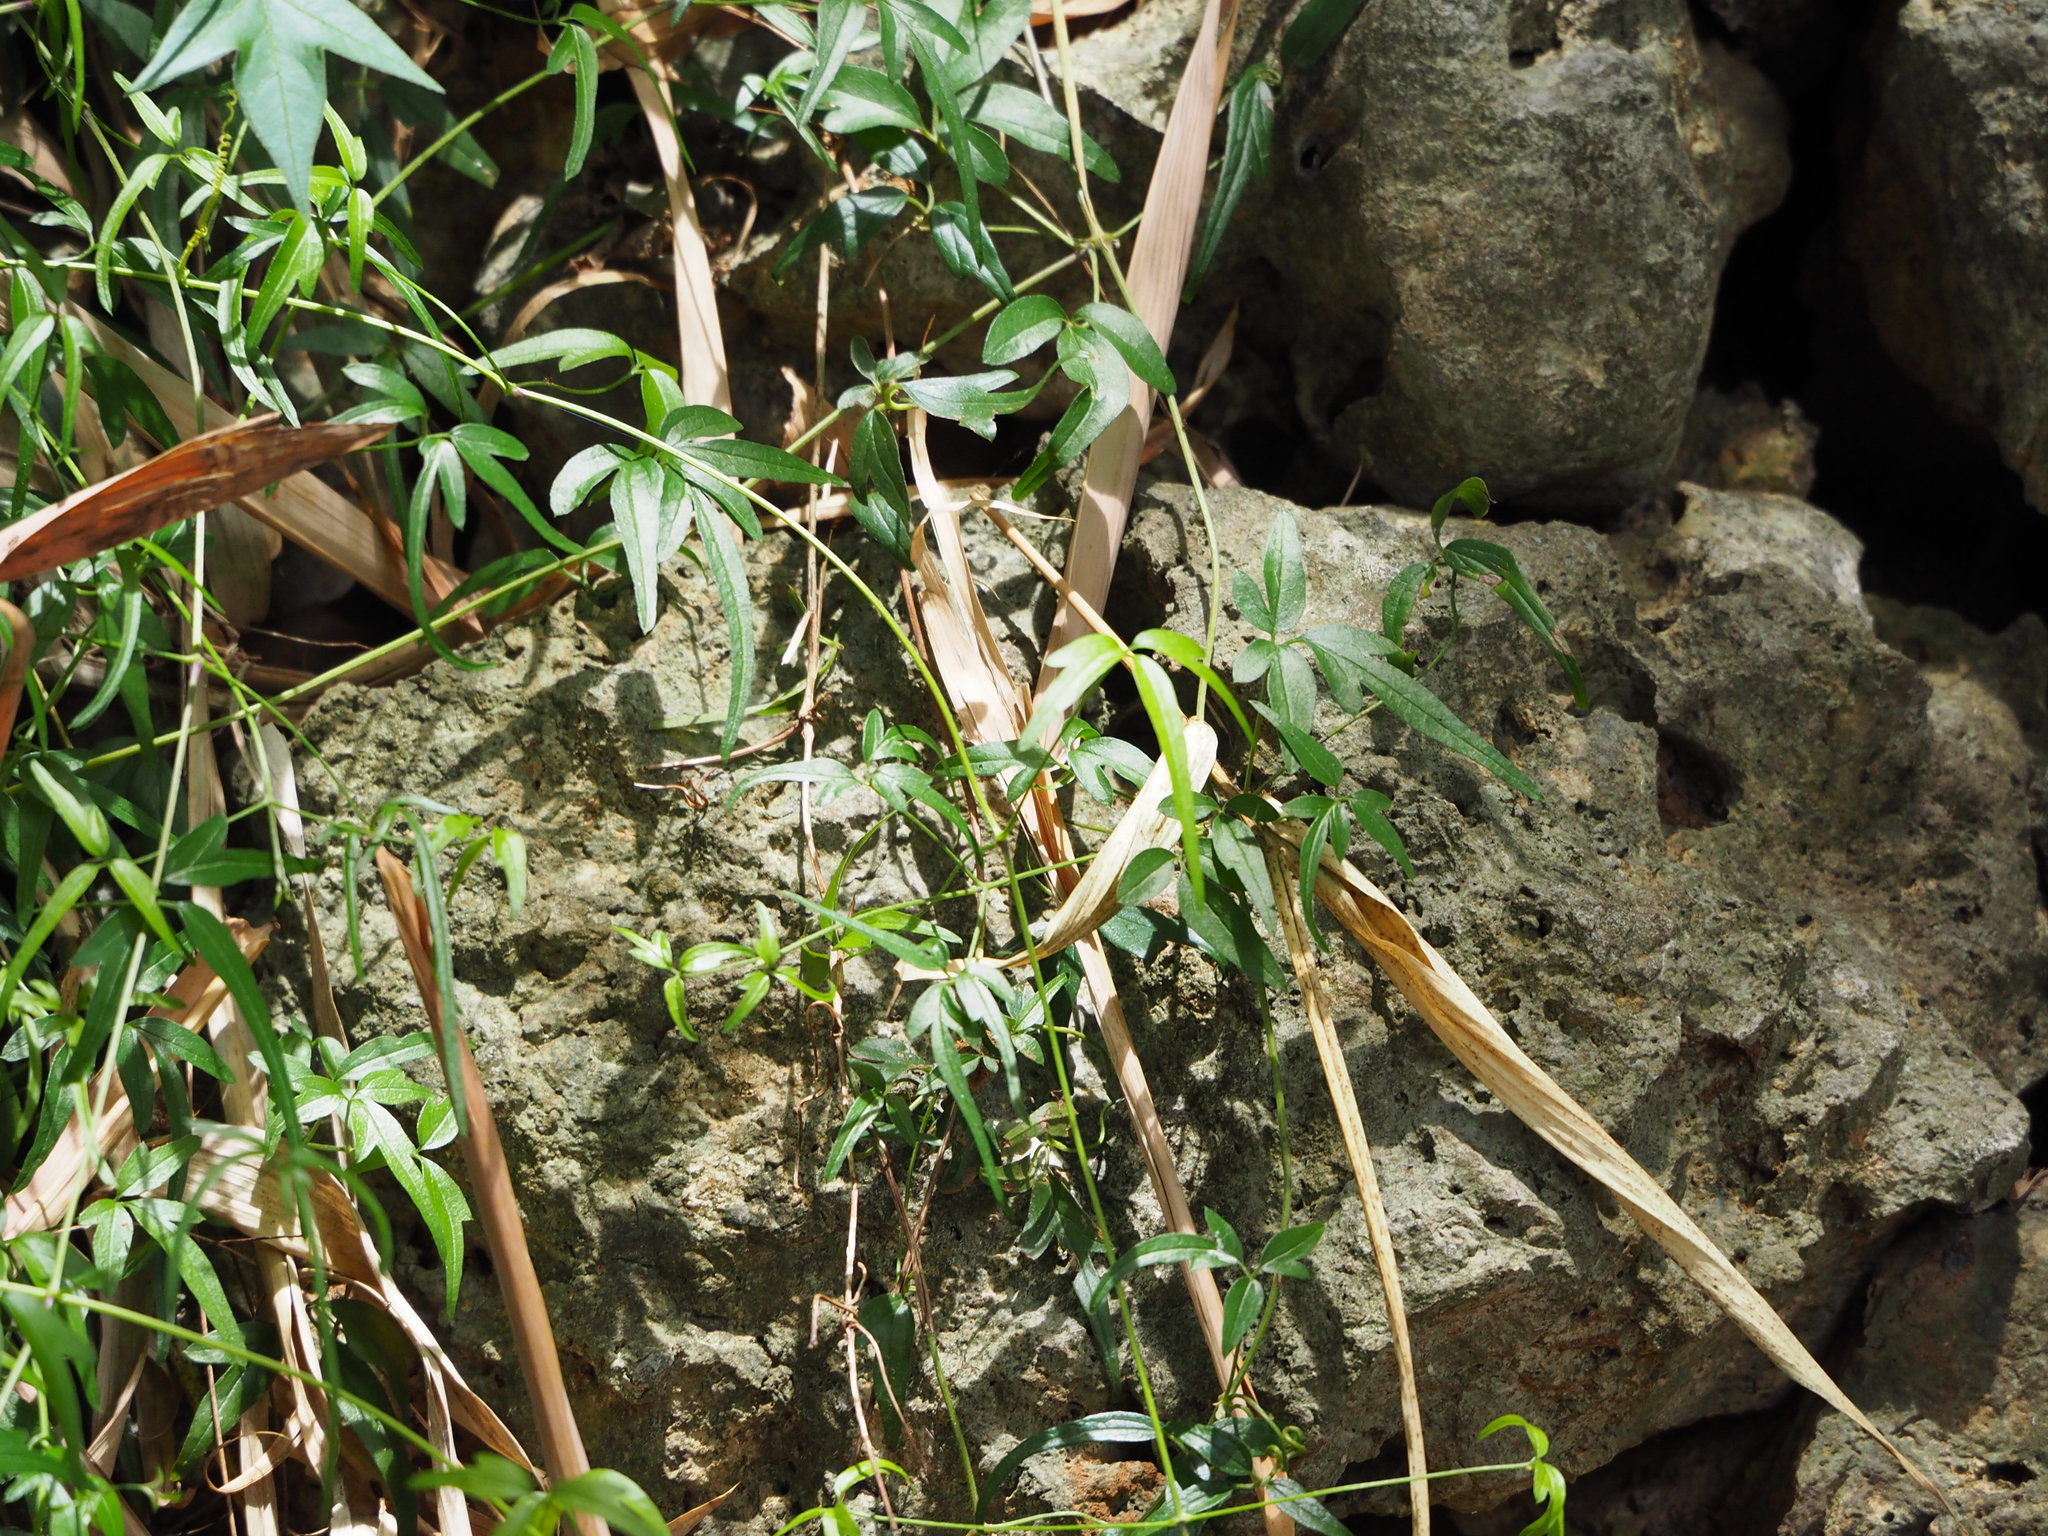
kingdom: Plantae
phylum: Tracheophyta
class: Magnoliopsida
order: Lamiales
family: Oleaceae
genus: Jasminum
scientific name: Jasminum nervosum
